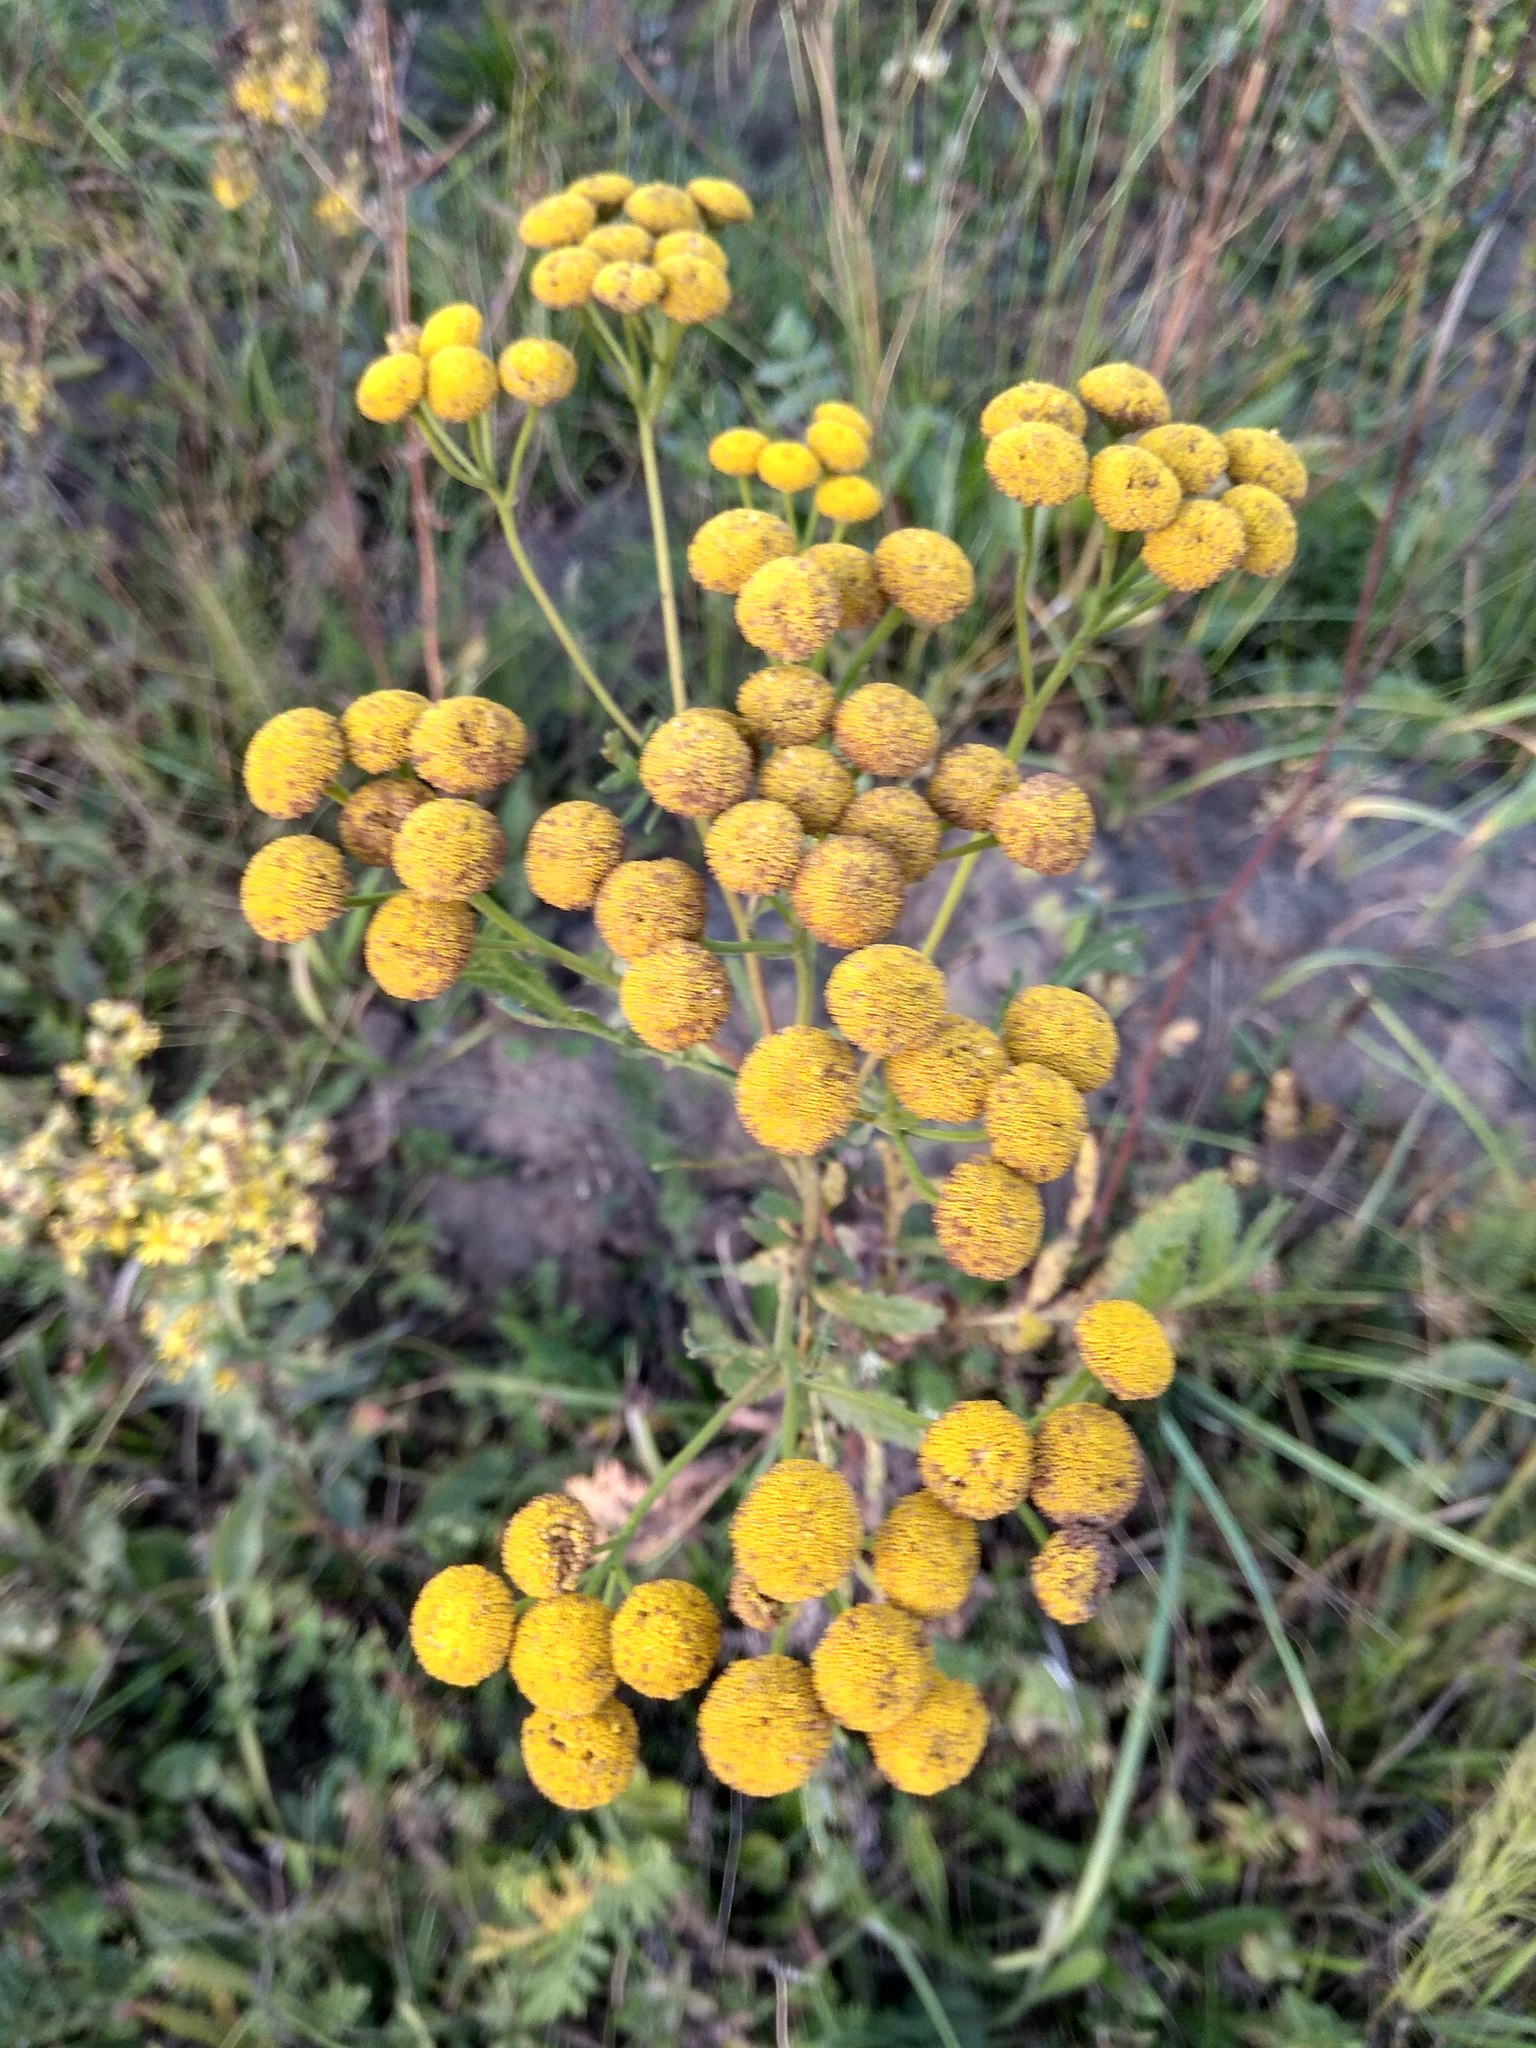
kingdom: Plantae
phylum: Tracheophyta
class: Magnoliopsida
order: Asterales
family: Asteraceae
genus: Tanacetum
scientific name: Tanacetum vulgare
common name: Common tansy
